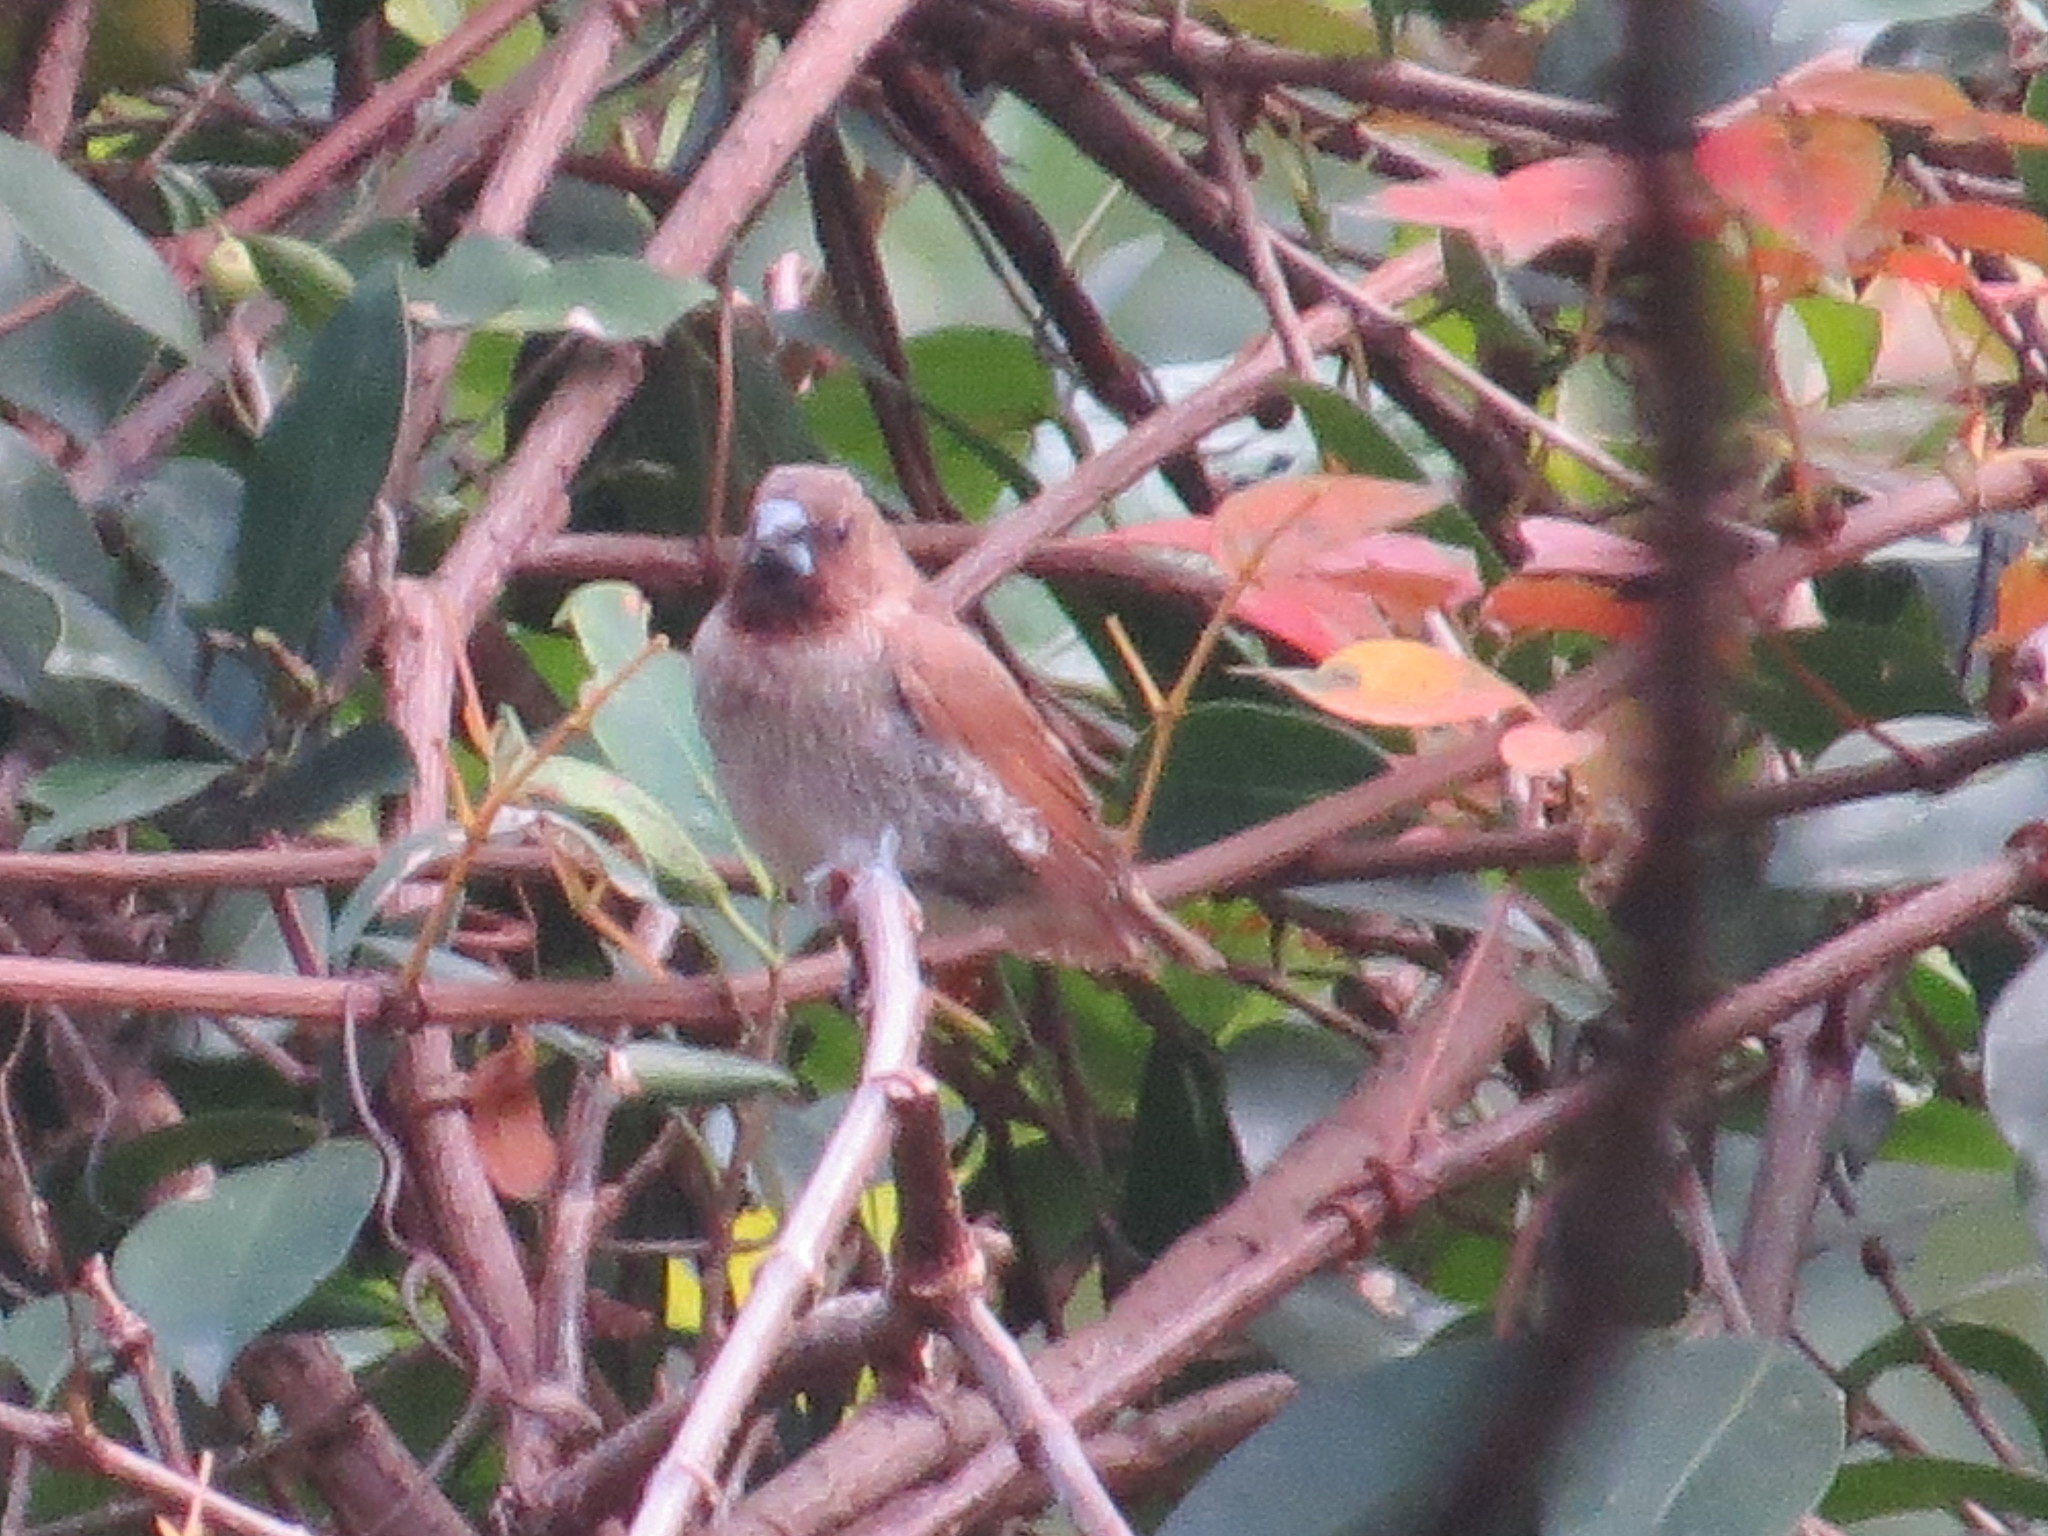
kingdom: Animalia
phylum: Chordata
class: Aves
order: Passeriformes
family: Estrildidae
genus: Lonchura
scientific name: Lonchura punctulata
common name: Scaly-breasted munia
